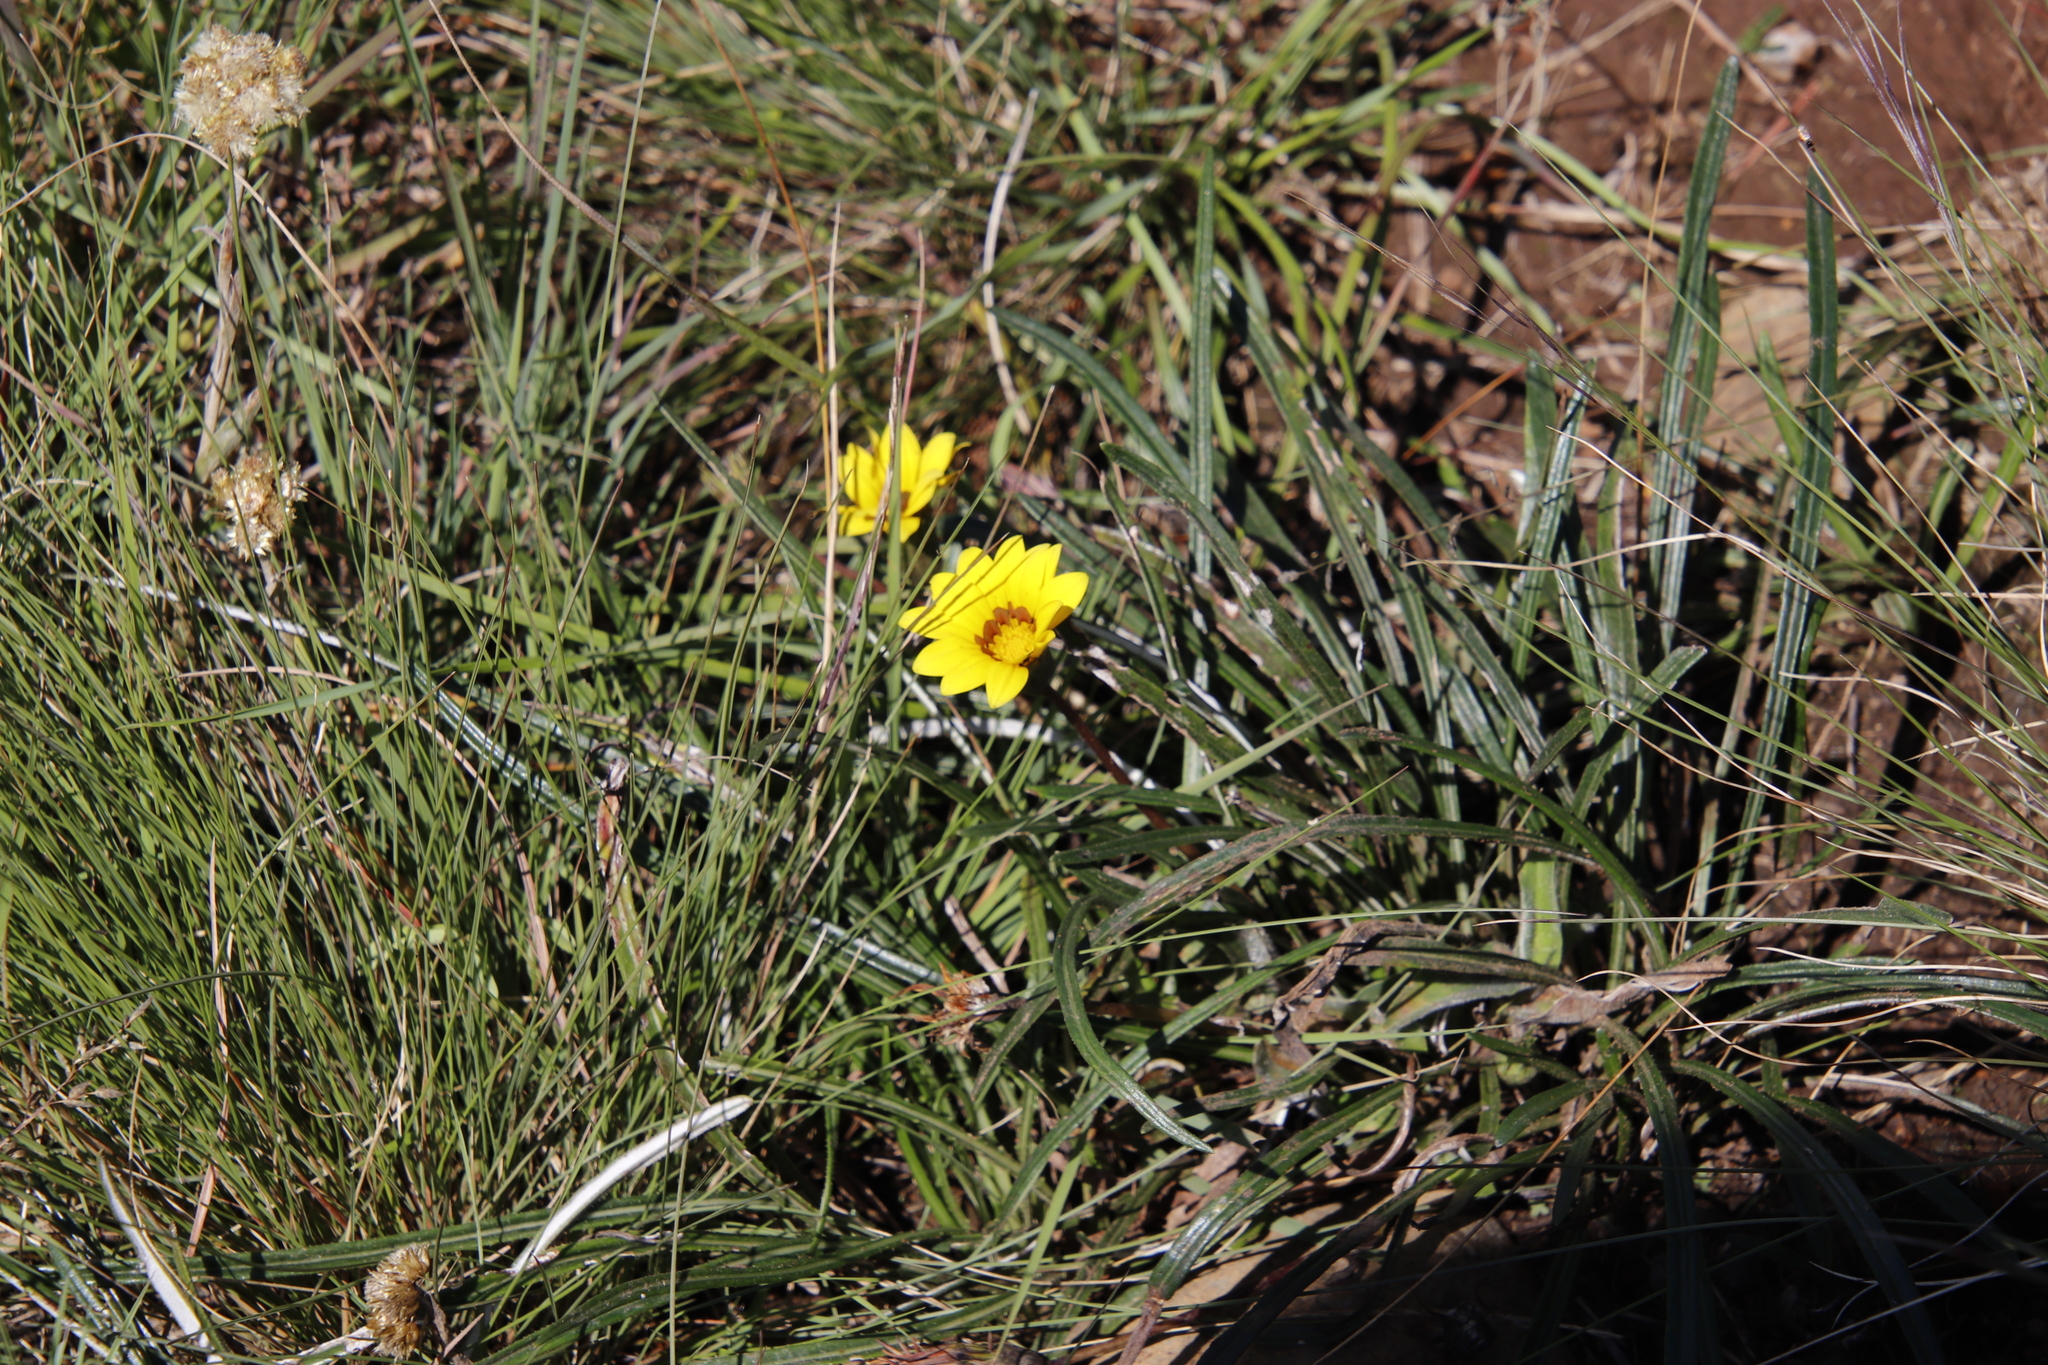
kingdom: Plantae
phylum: Tracheophyta
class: Magnoliopsida
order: Asterales
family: Asteraceae
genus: Gazania
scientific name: Gazania linearis
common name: Treasureflower
